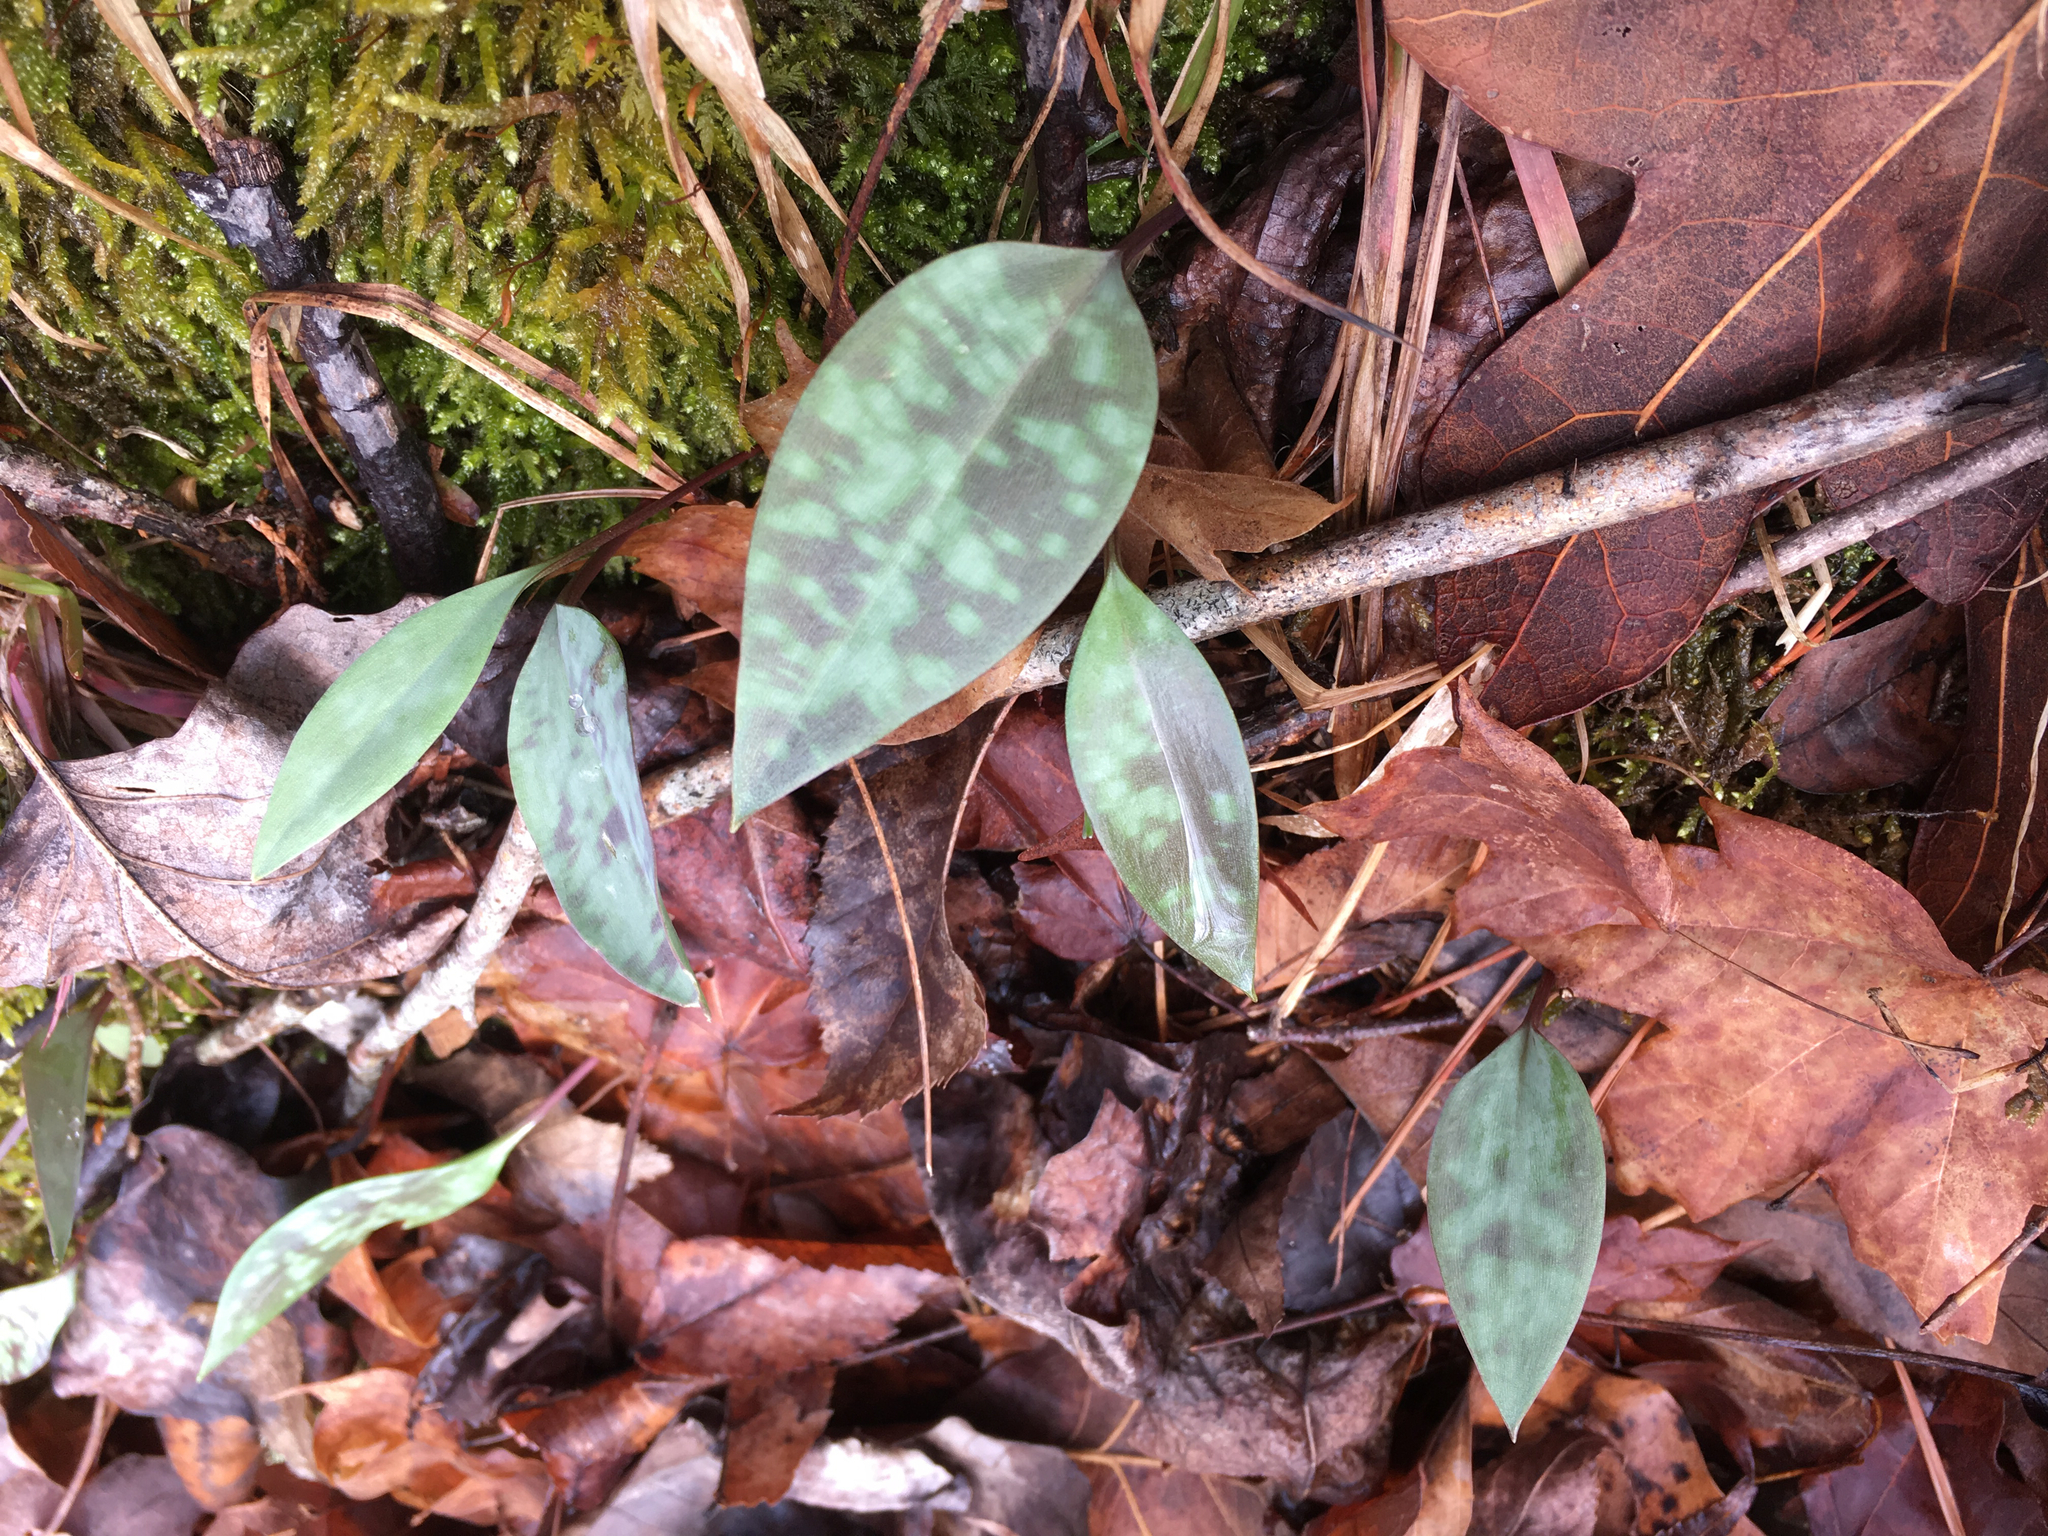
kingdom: Plantae
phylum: Tracheophyta
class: Liliopsida
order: Liliales
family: Liliaceae
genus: Erythronium
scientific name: Erythronium
